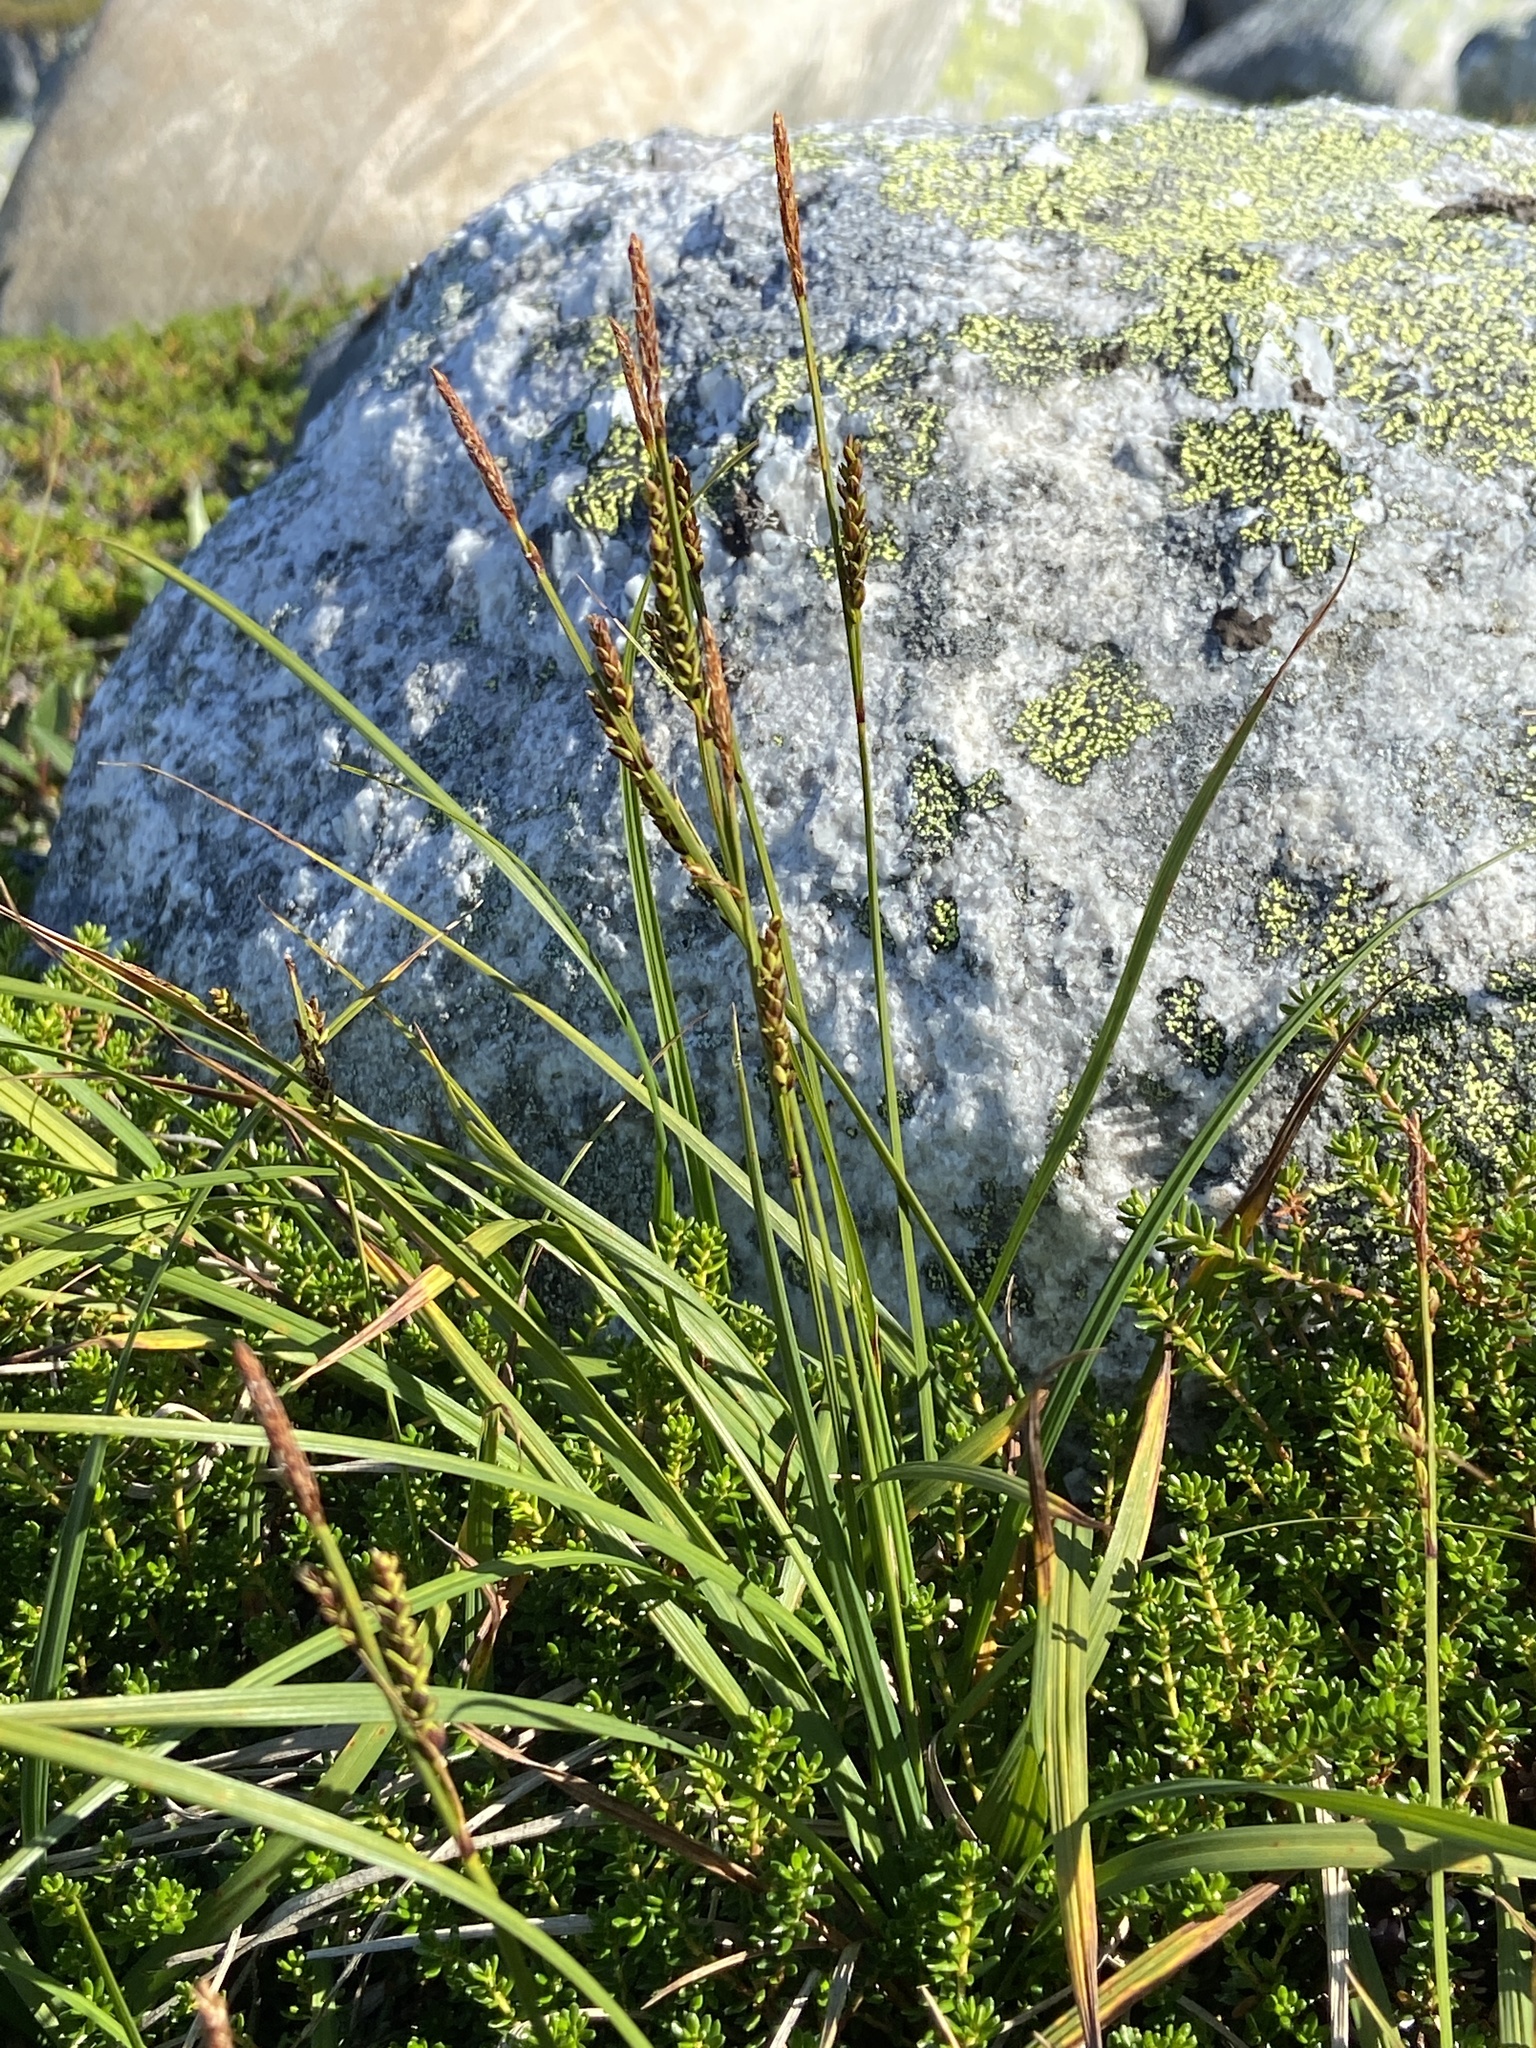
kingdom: Plantae
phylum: Tracheophyta
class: Liliopsida
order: Poales
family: Cyperaceae
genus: Carex
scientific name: Carex bigelowii
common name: Stiff sedge
